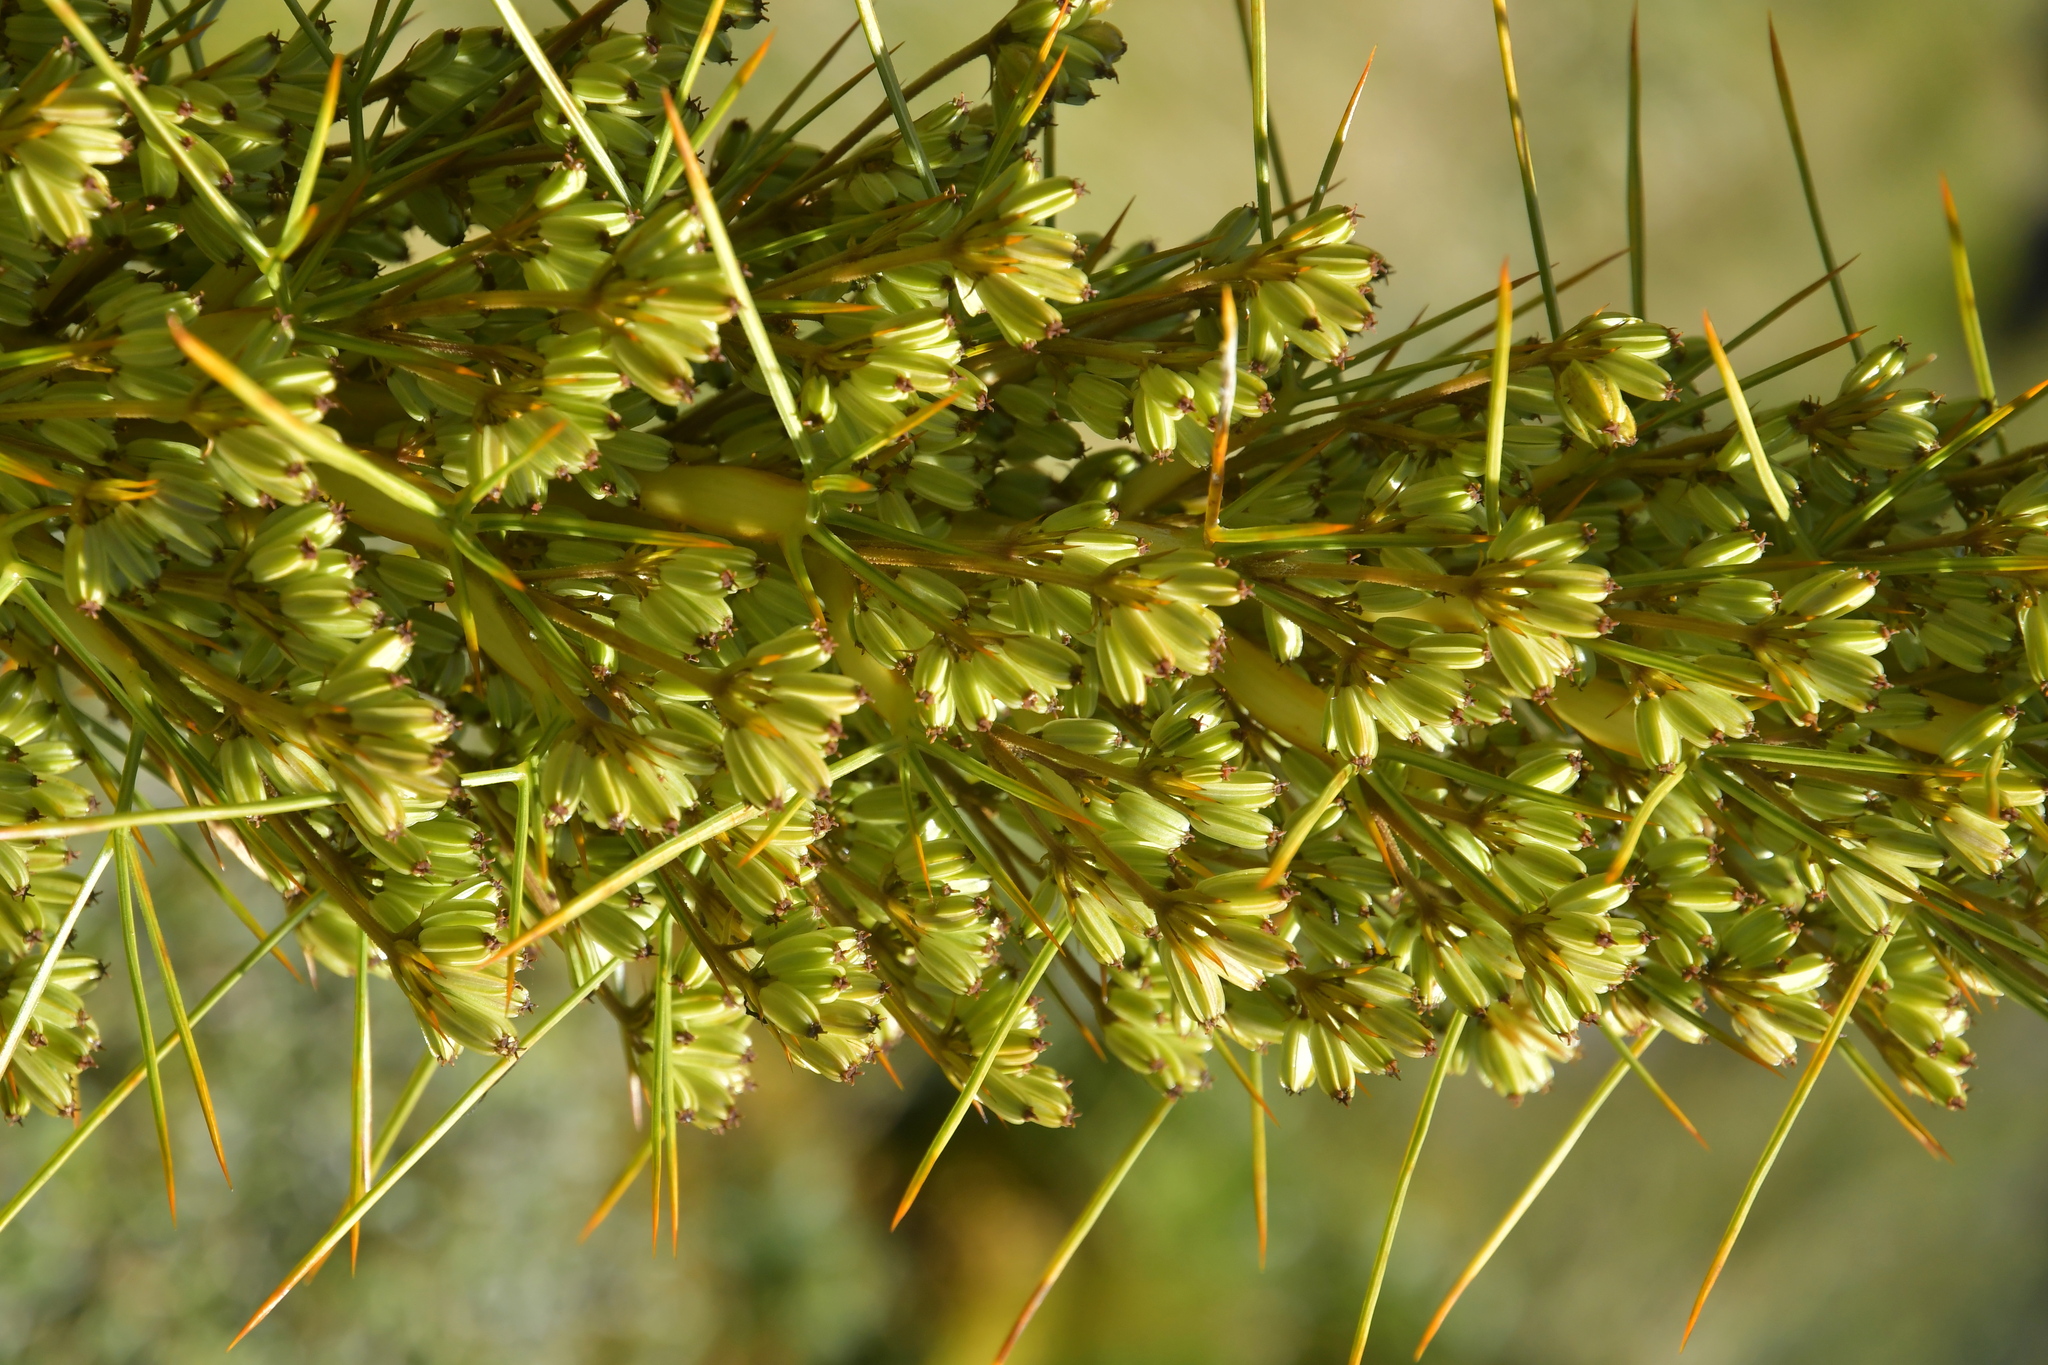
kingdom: Plantae
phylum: Tracheophyta
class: Magnoliopsida
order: Apiales
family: Apiaceae
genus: Aciphylla
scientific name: Aciphylla squarrosa
